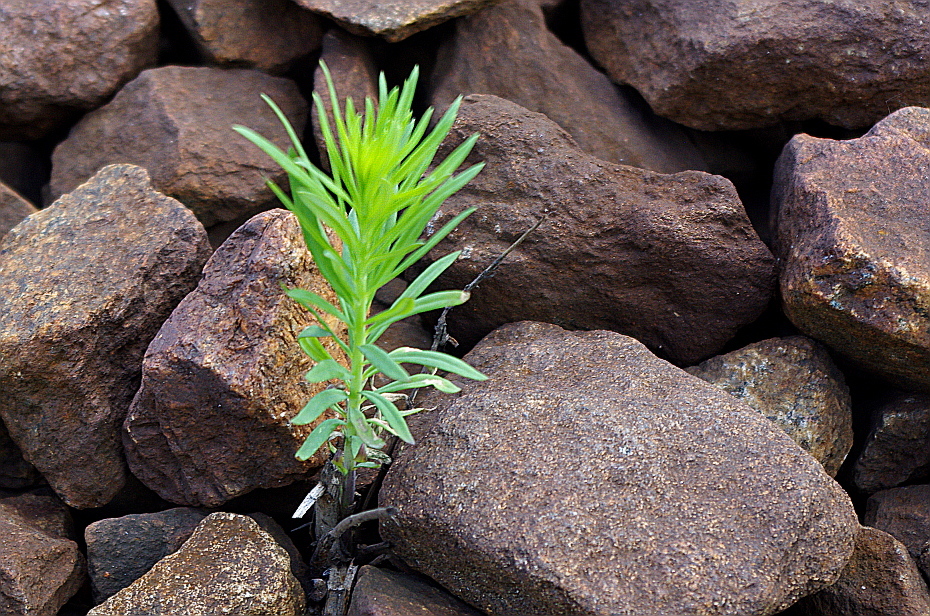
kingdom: Plantae
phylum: Tracheophyta
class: Magnoliopsida
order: Lamiales
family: Plantaginaceae
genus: Linaria
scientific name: Linaria vulgaris
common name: Butter and eggs
